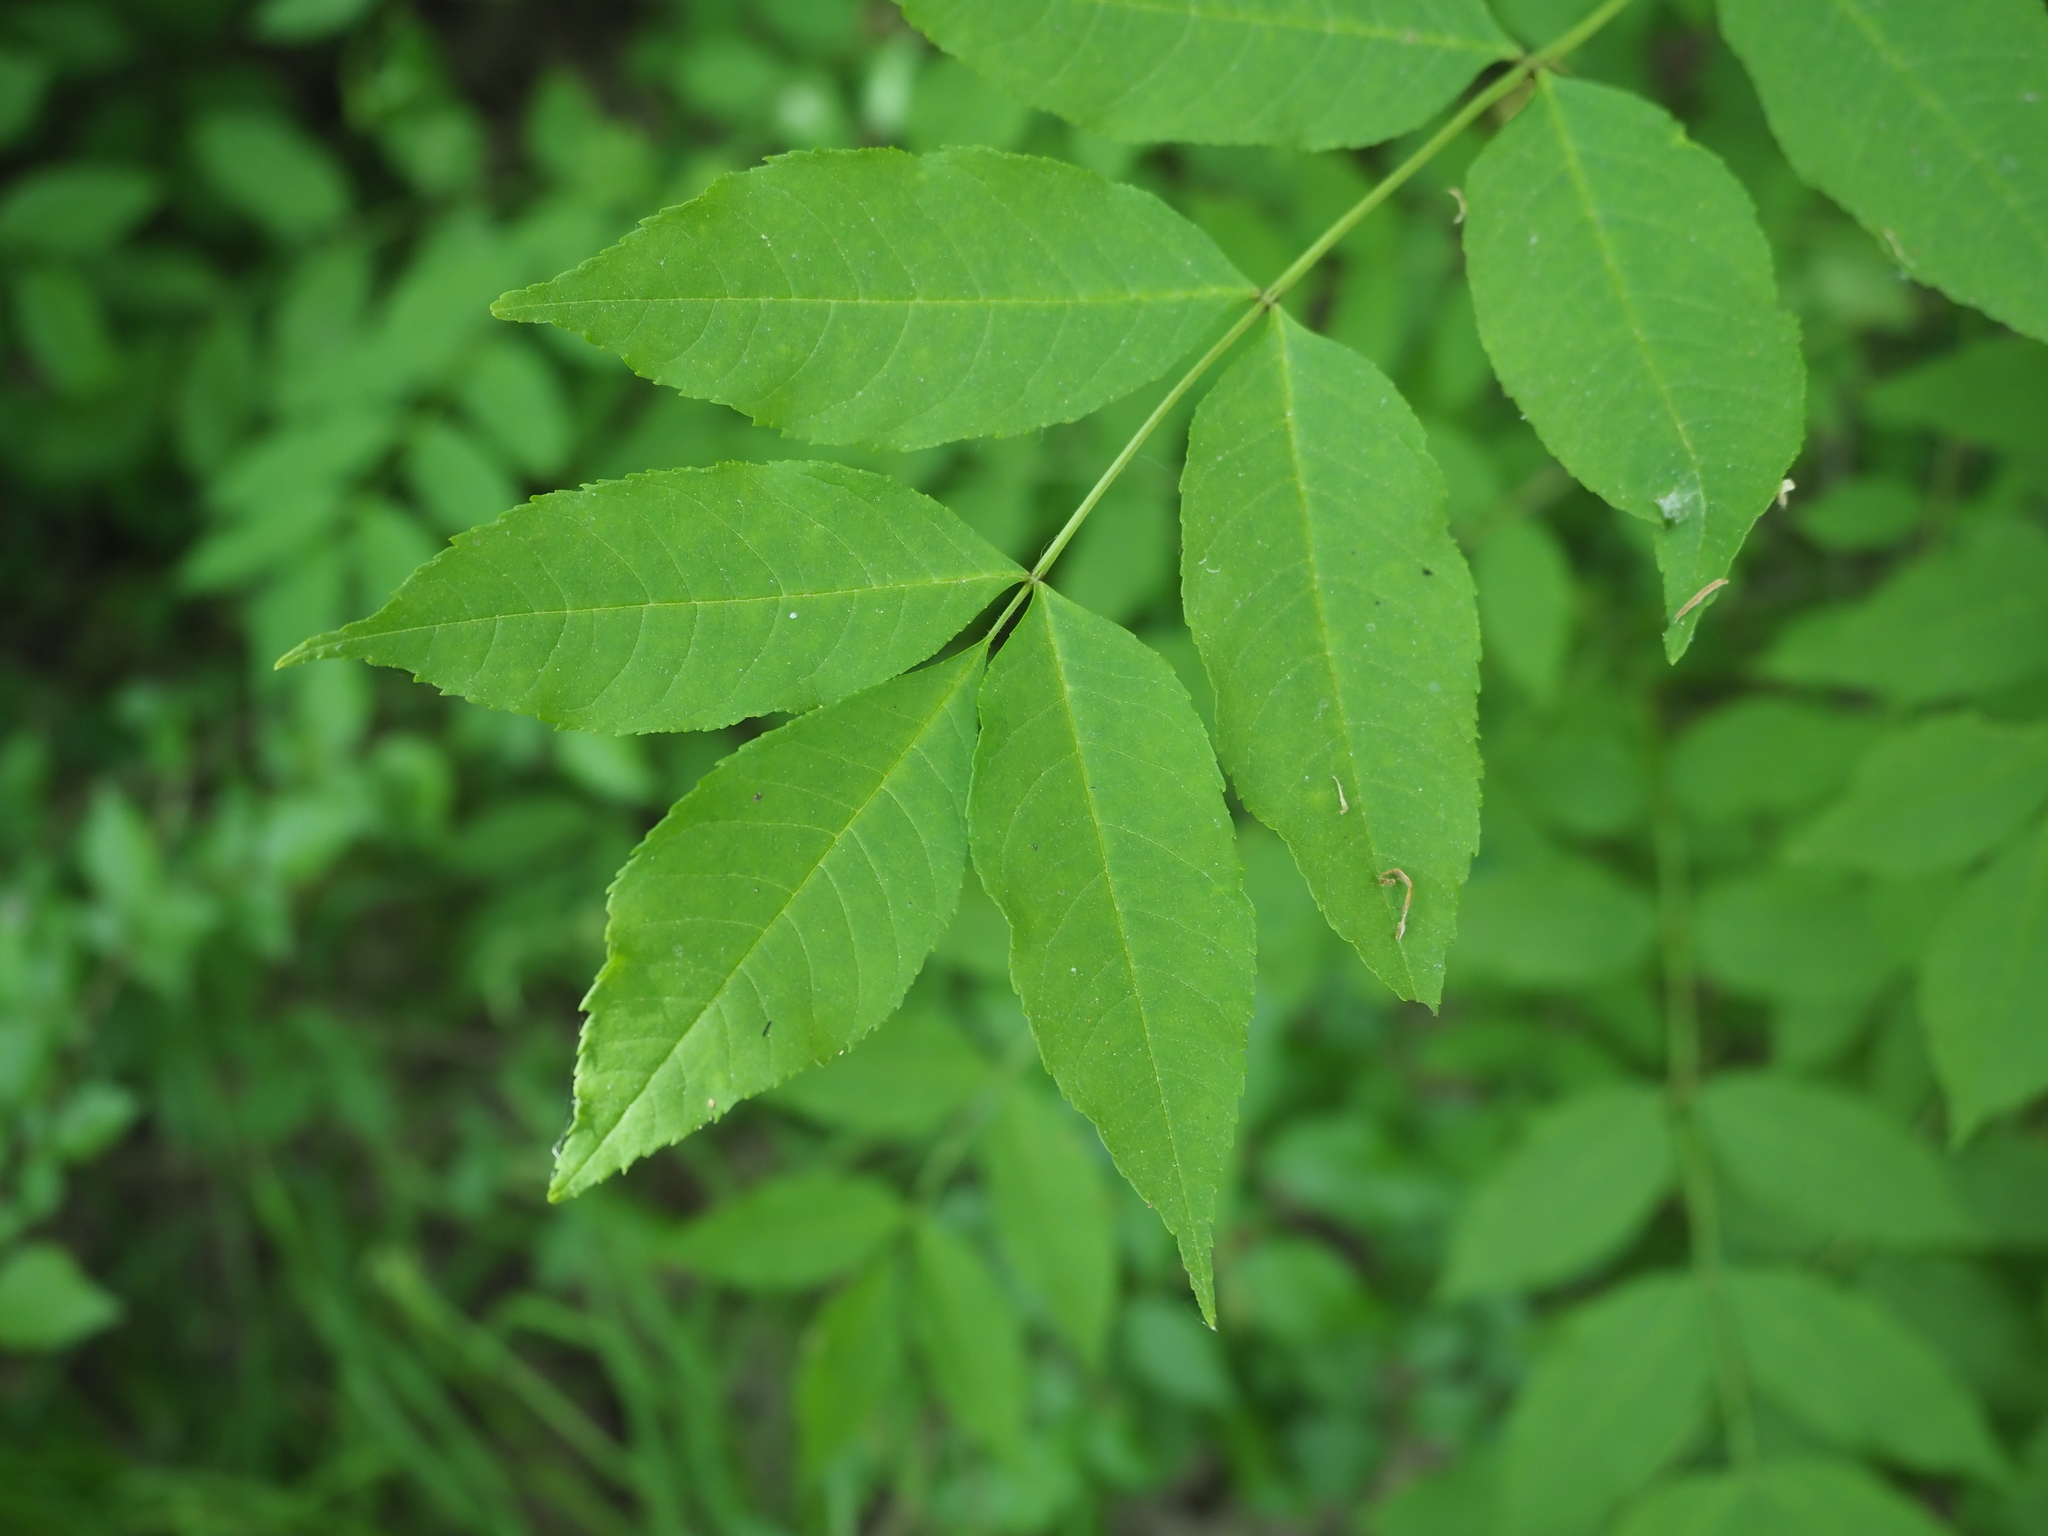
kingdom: Plantae
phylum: Tracheophyta
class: Magnoliopsida
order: Lamiales
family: Oleaceae
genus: Fraxinus
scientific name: Fraxinus excelsior
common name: European ash
